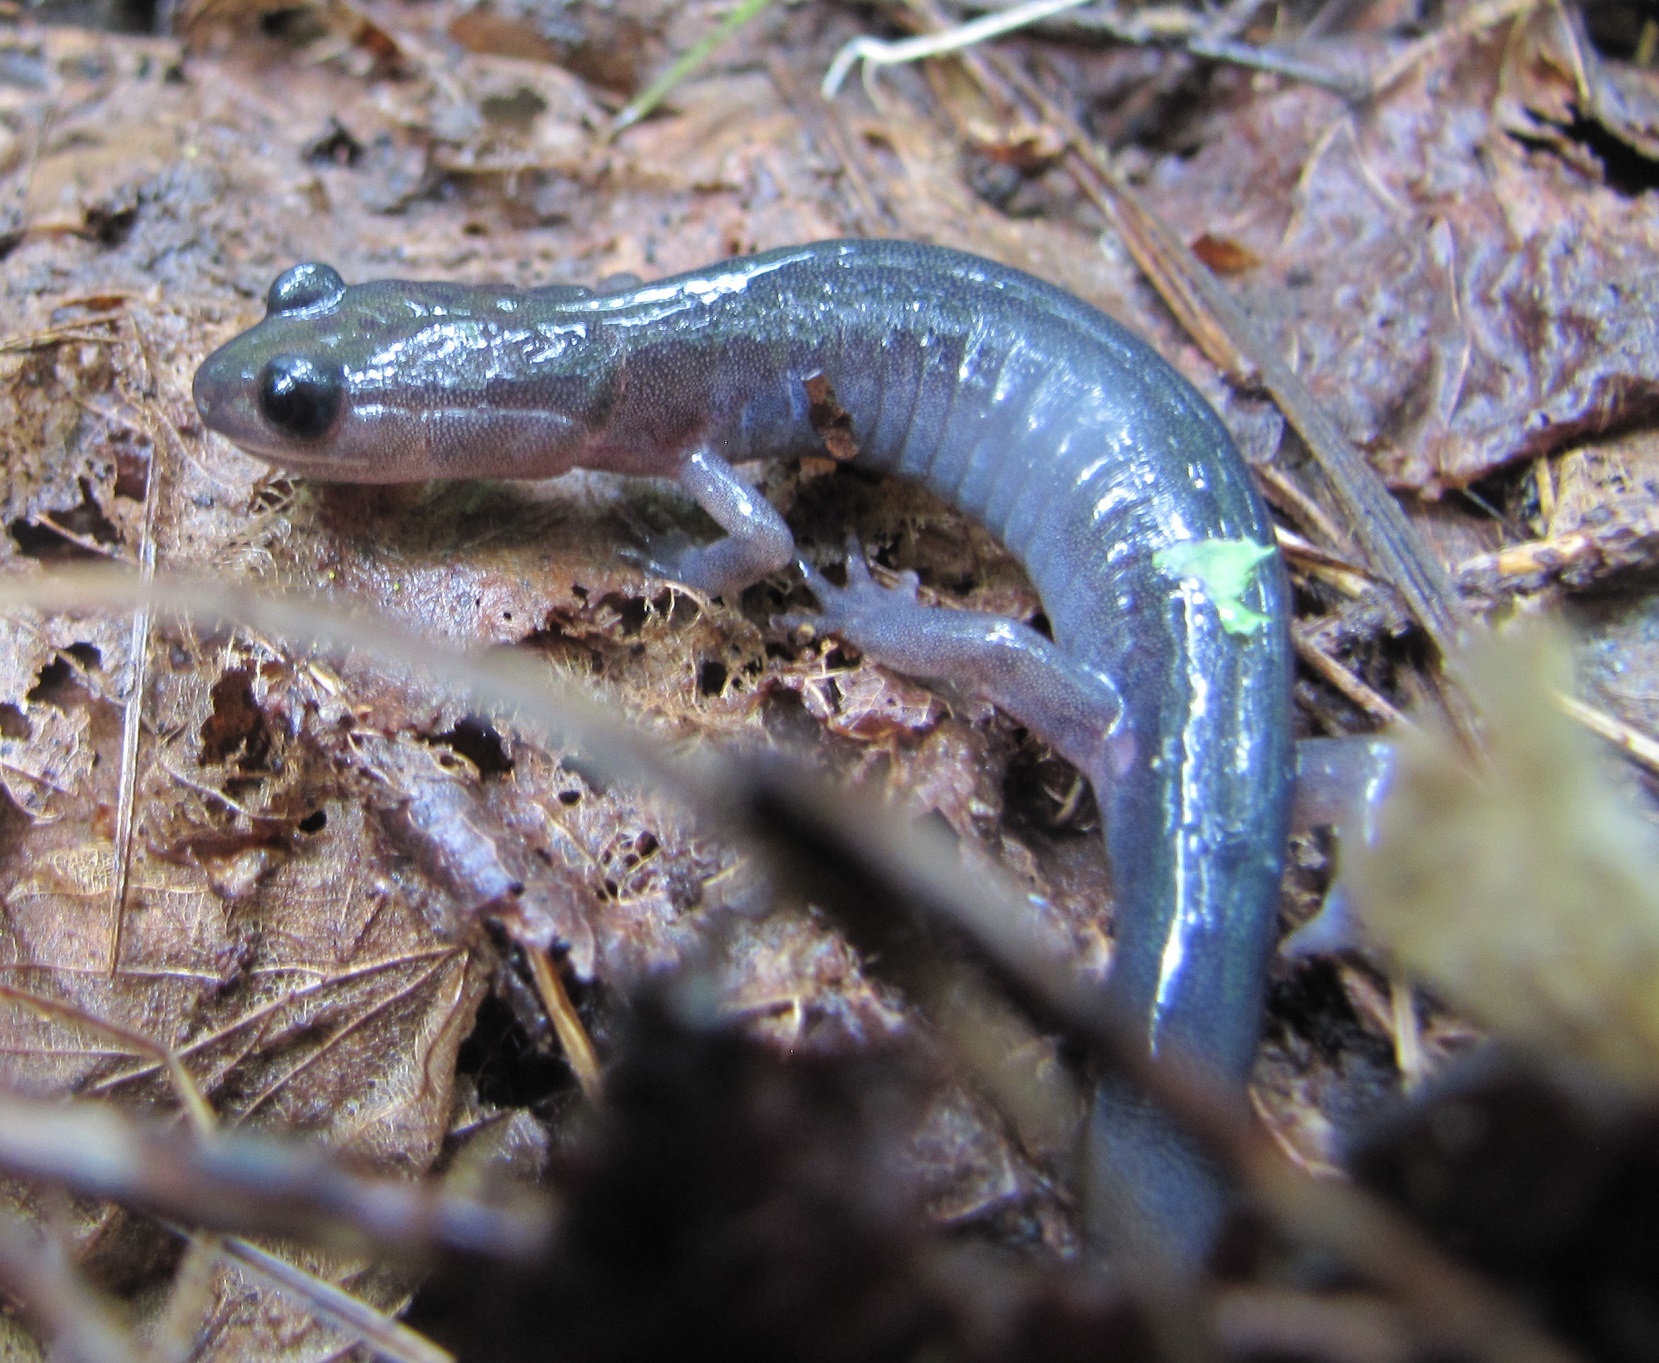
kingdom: Animalia
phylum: Chordata
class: Amphibia
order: Caudata
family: Plethodontidae
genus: Plethodon
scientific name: Plethodon montanus
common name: Northern gray-cheeked salamander
